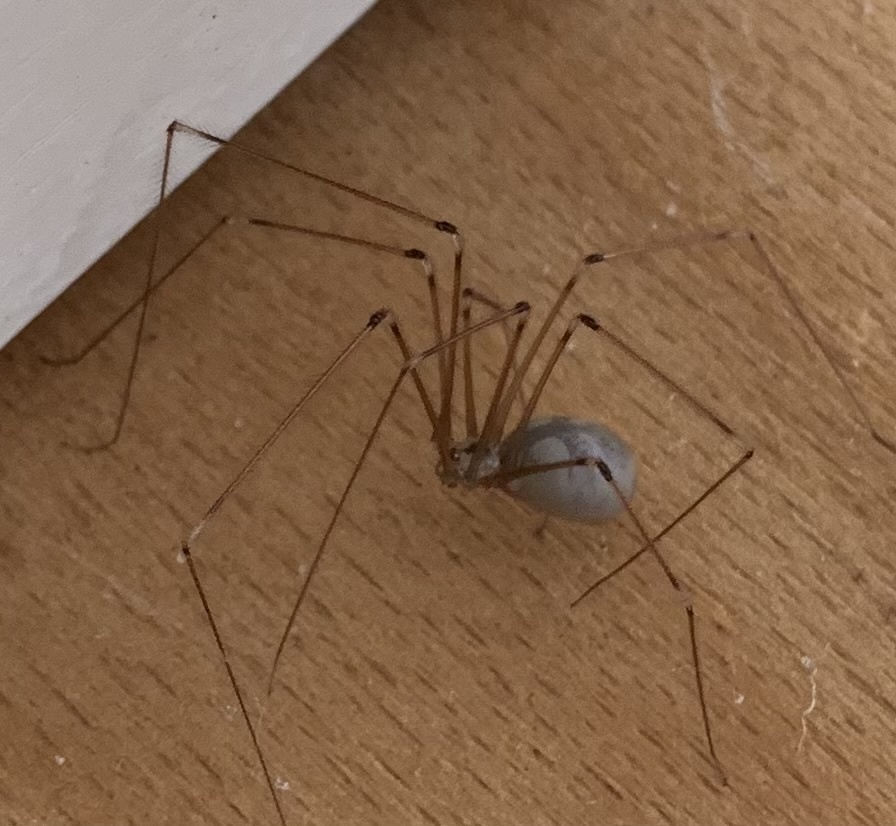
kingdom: Animalia
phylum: Arthropoda
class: Arachnida
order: Araneae
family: Pholcidae
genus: Pholcus
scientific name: Pholcus phalangioides
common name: Longbodied cellar spider
